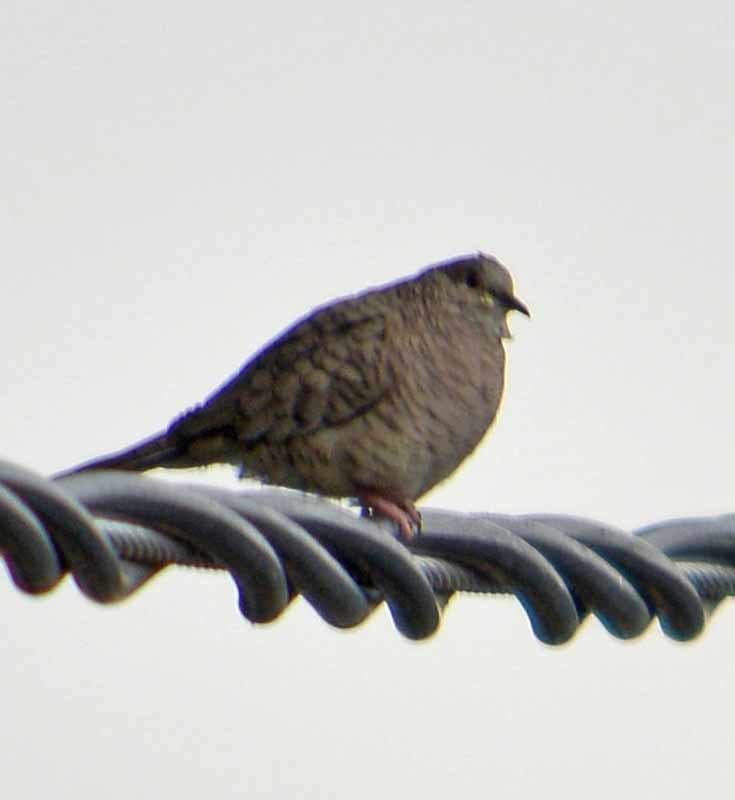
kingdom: Animalia
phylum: Chordata
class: Aves
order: Columbiformes
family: Columbidae
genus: Columbina
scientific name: Columbina inca
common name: Inca dove
